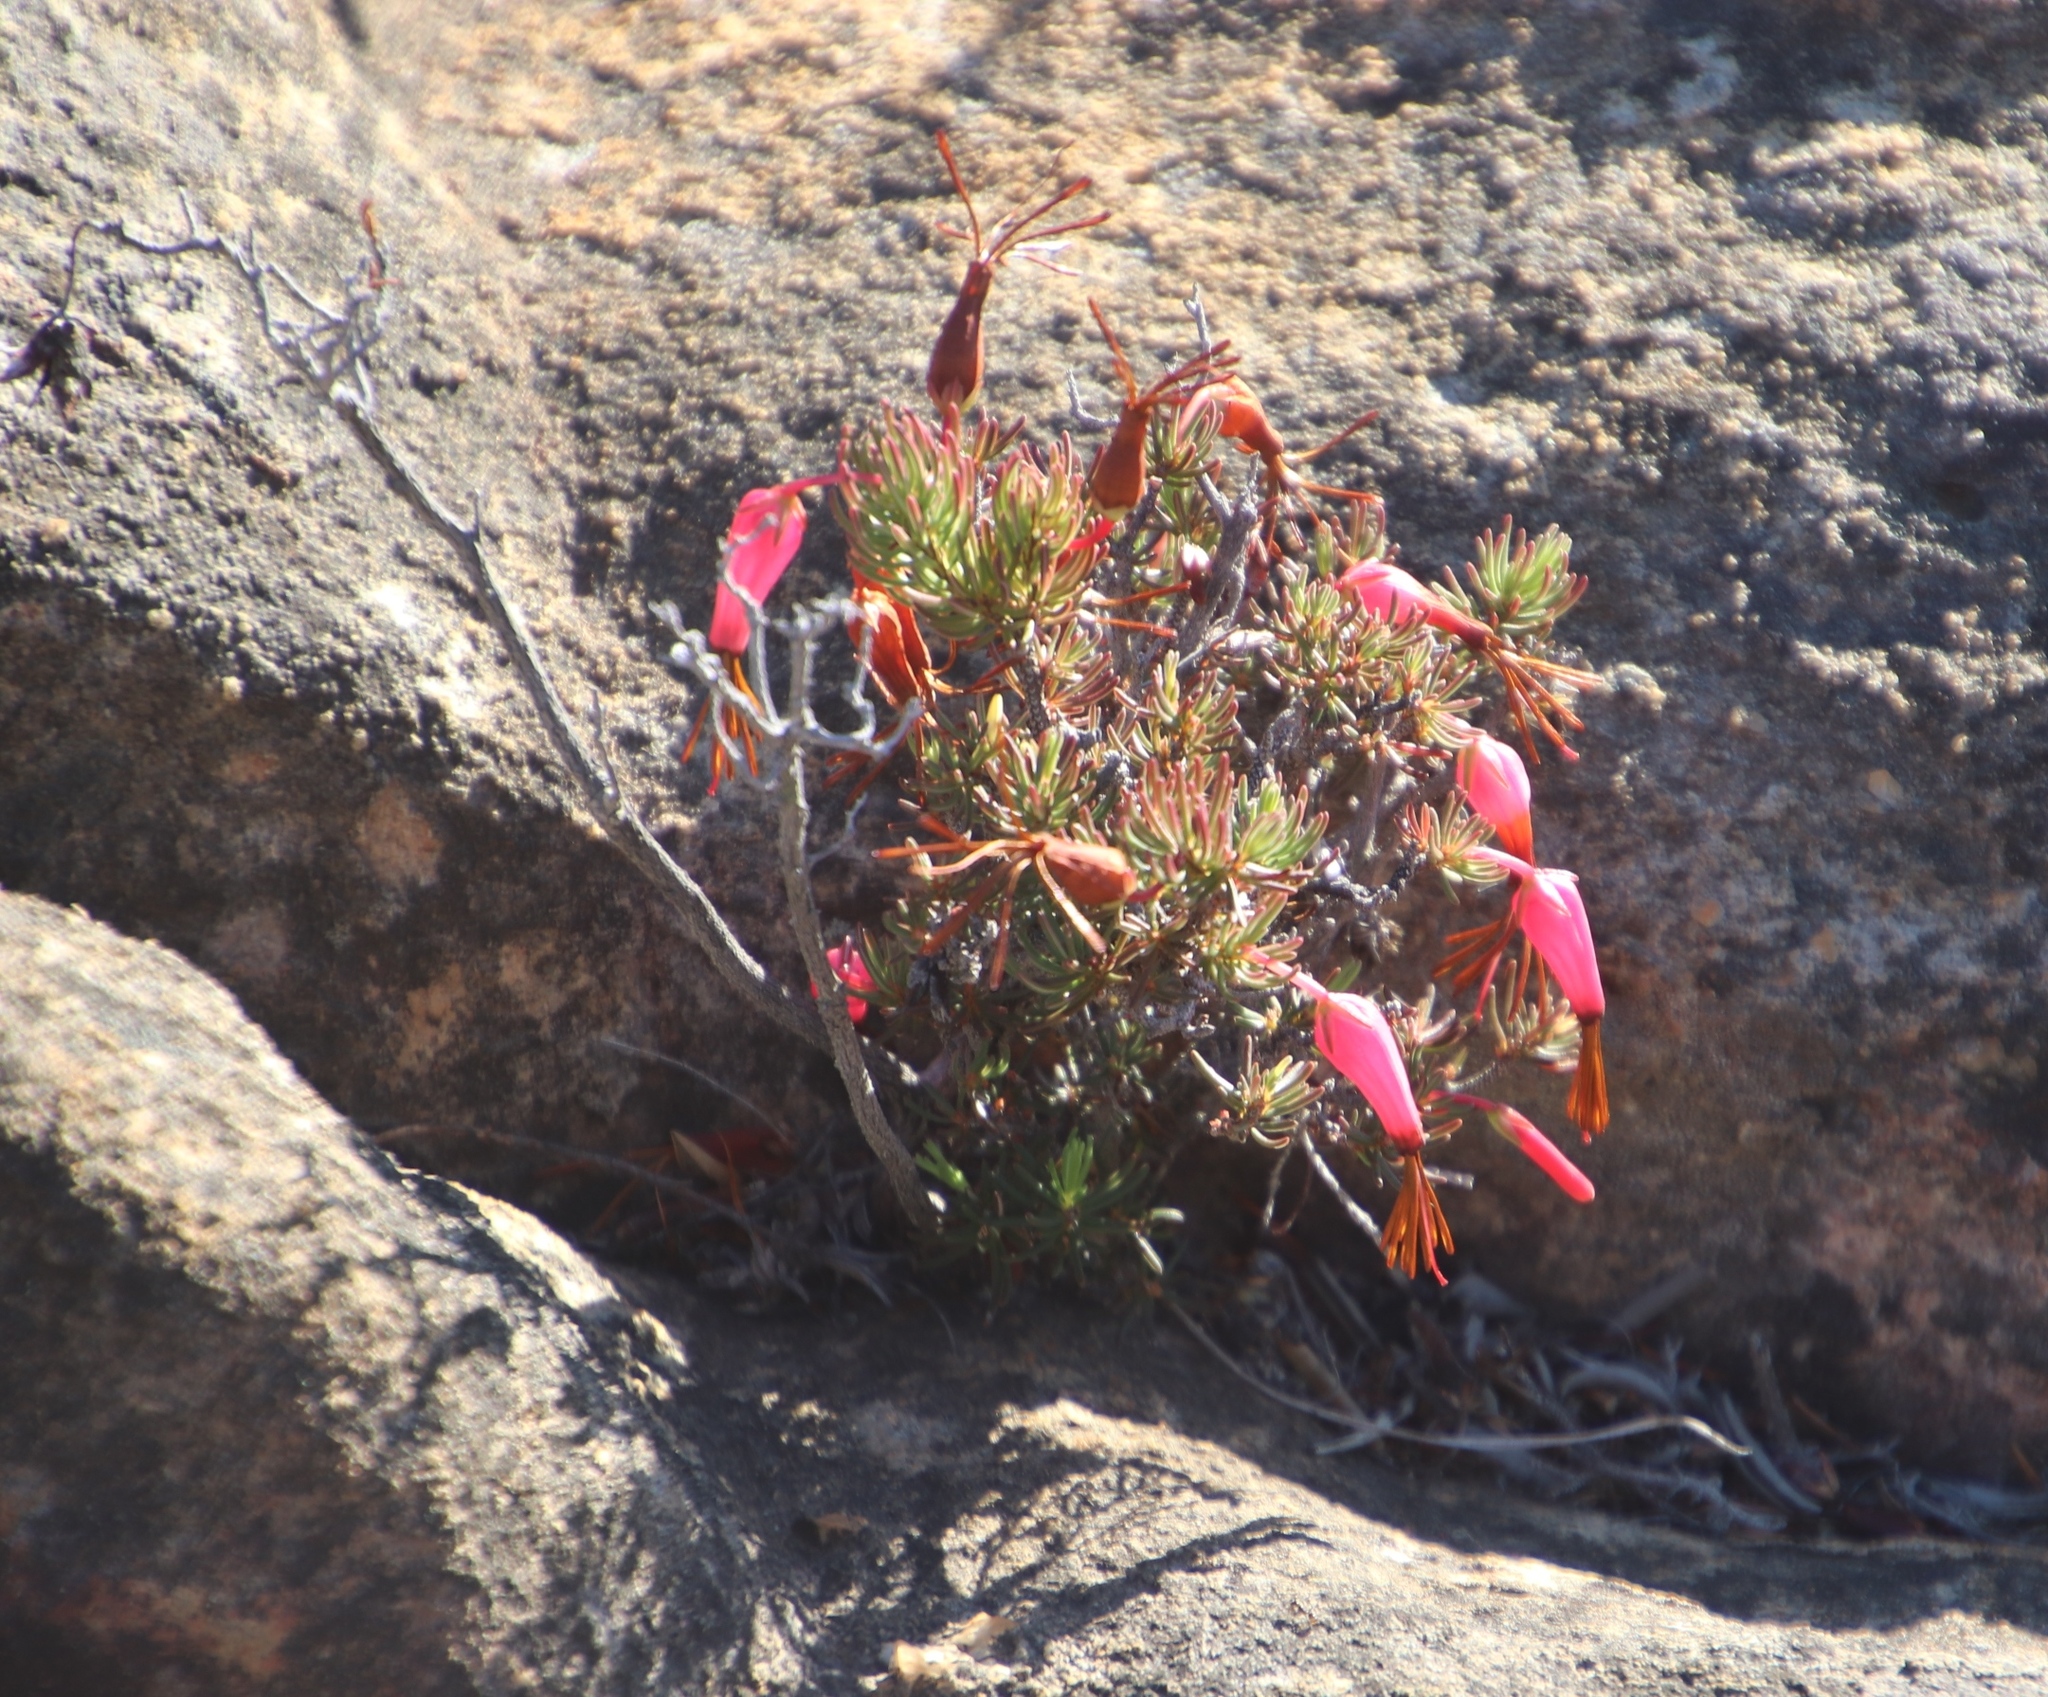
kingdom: Plantae
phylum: Tracheophyta
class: Magnoliopsida
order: Ericales
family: Ericaceae
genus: Erica
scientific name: Erica plukenetii
